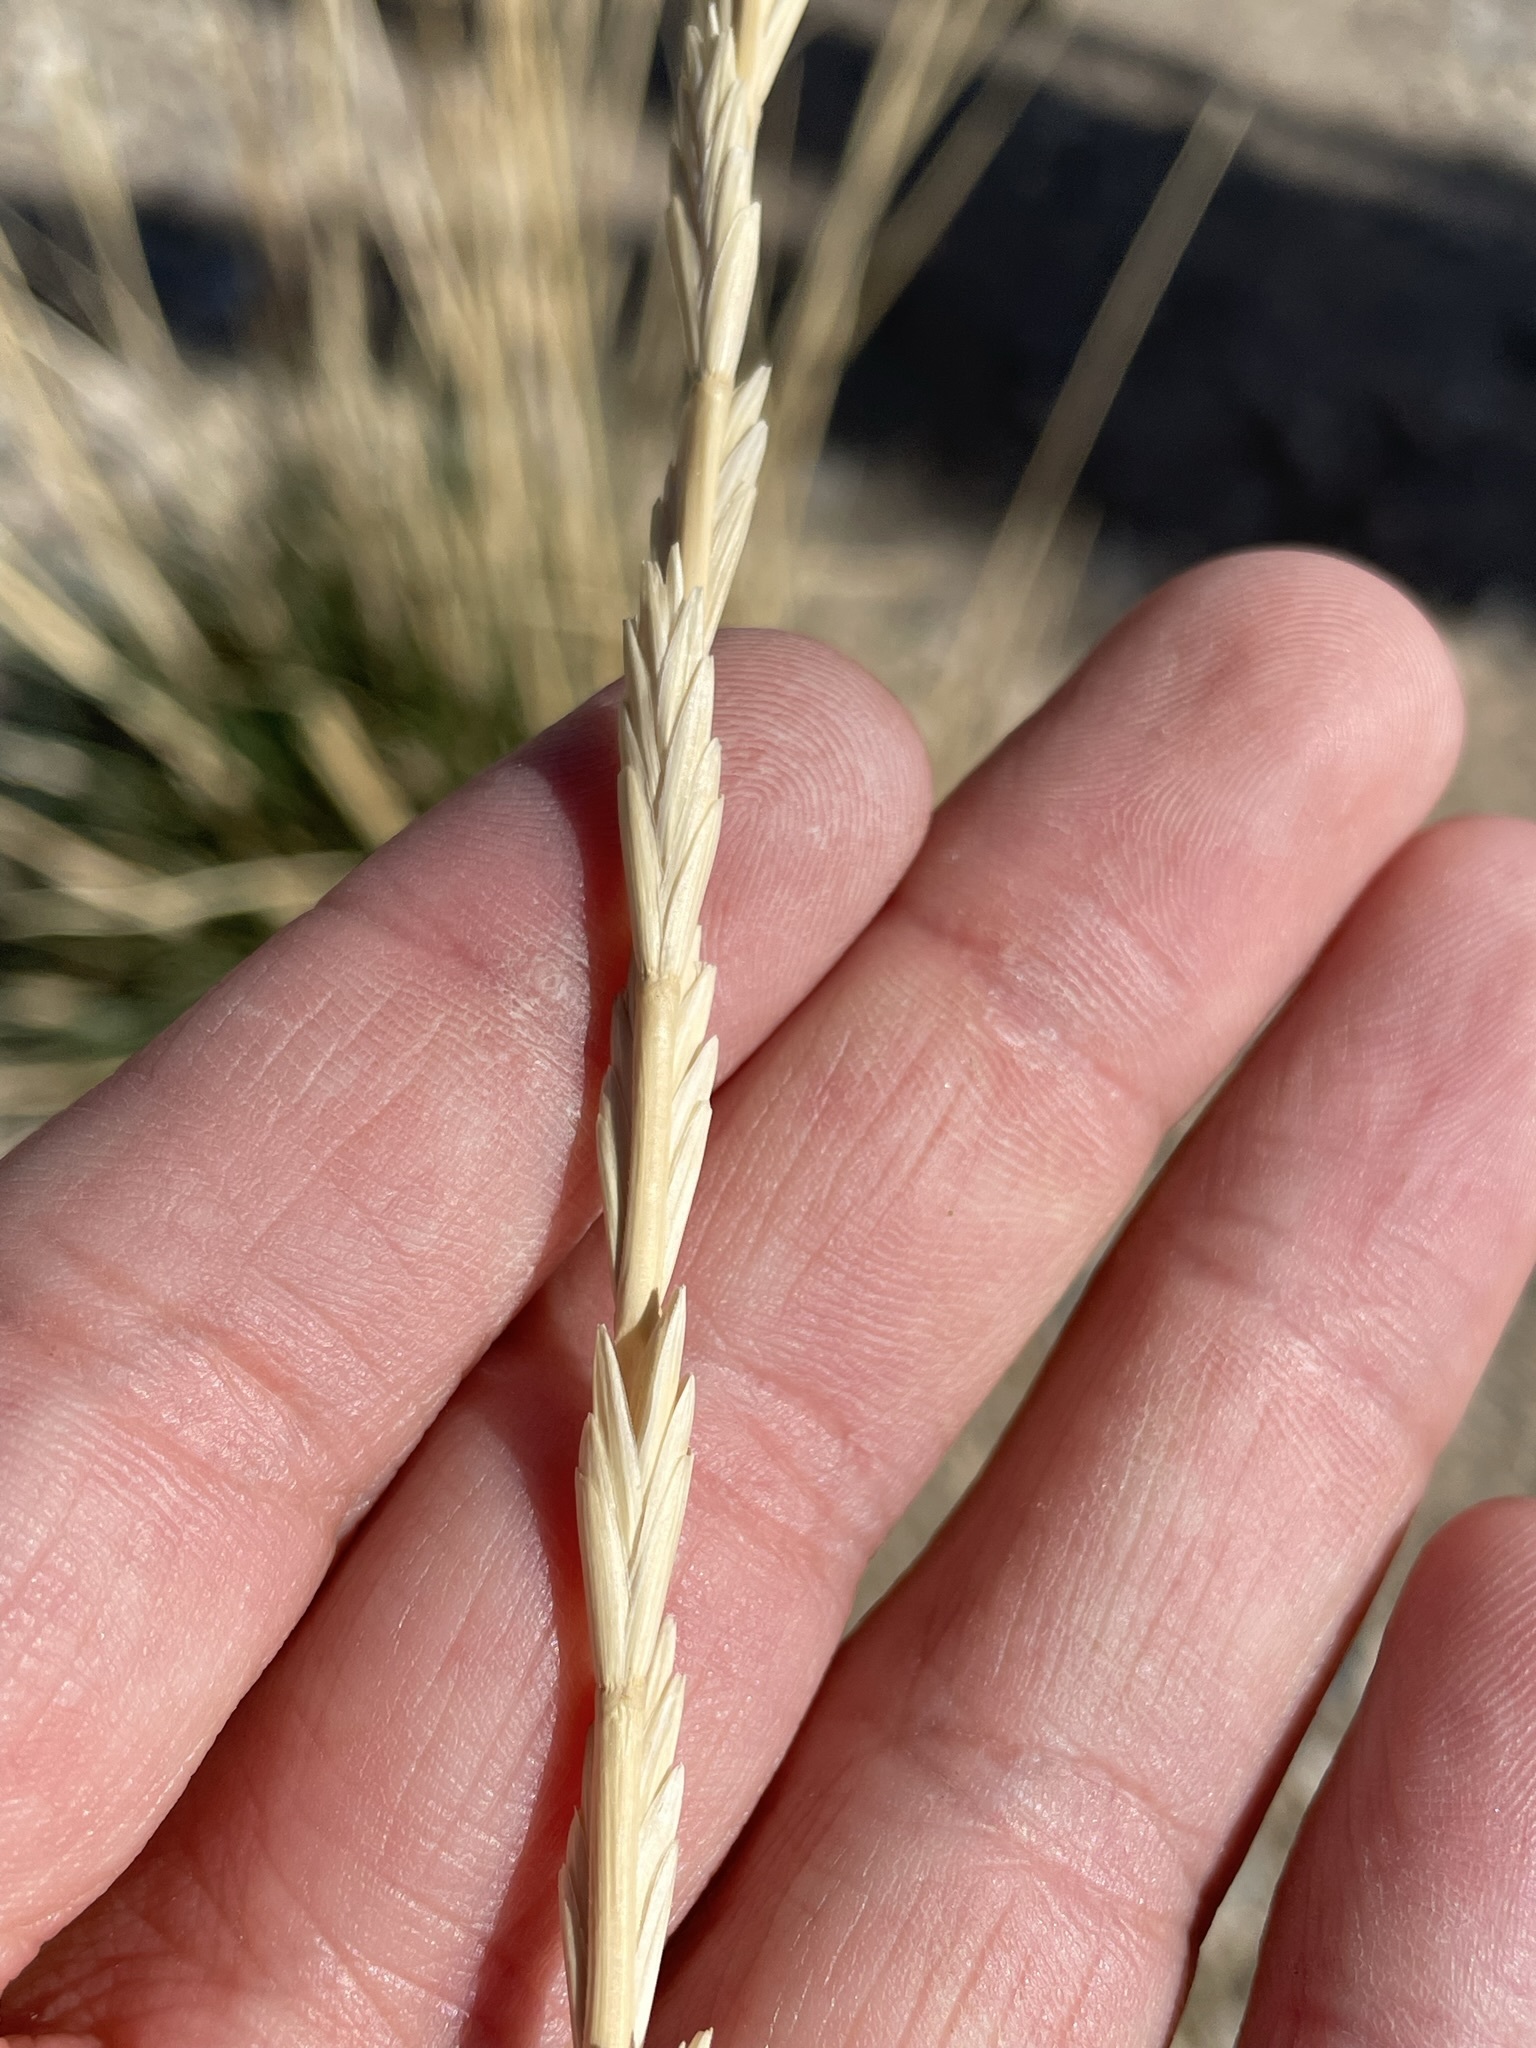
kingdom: Plantae
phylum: Tracheophyta
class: Liliopsida
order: Poales
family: Poaceae
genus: Thinopyrum
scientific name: Thinopyrum obtusiflorum
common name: Eurasian quackgrass
